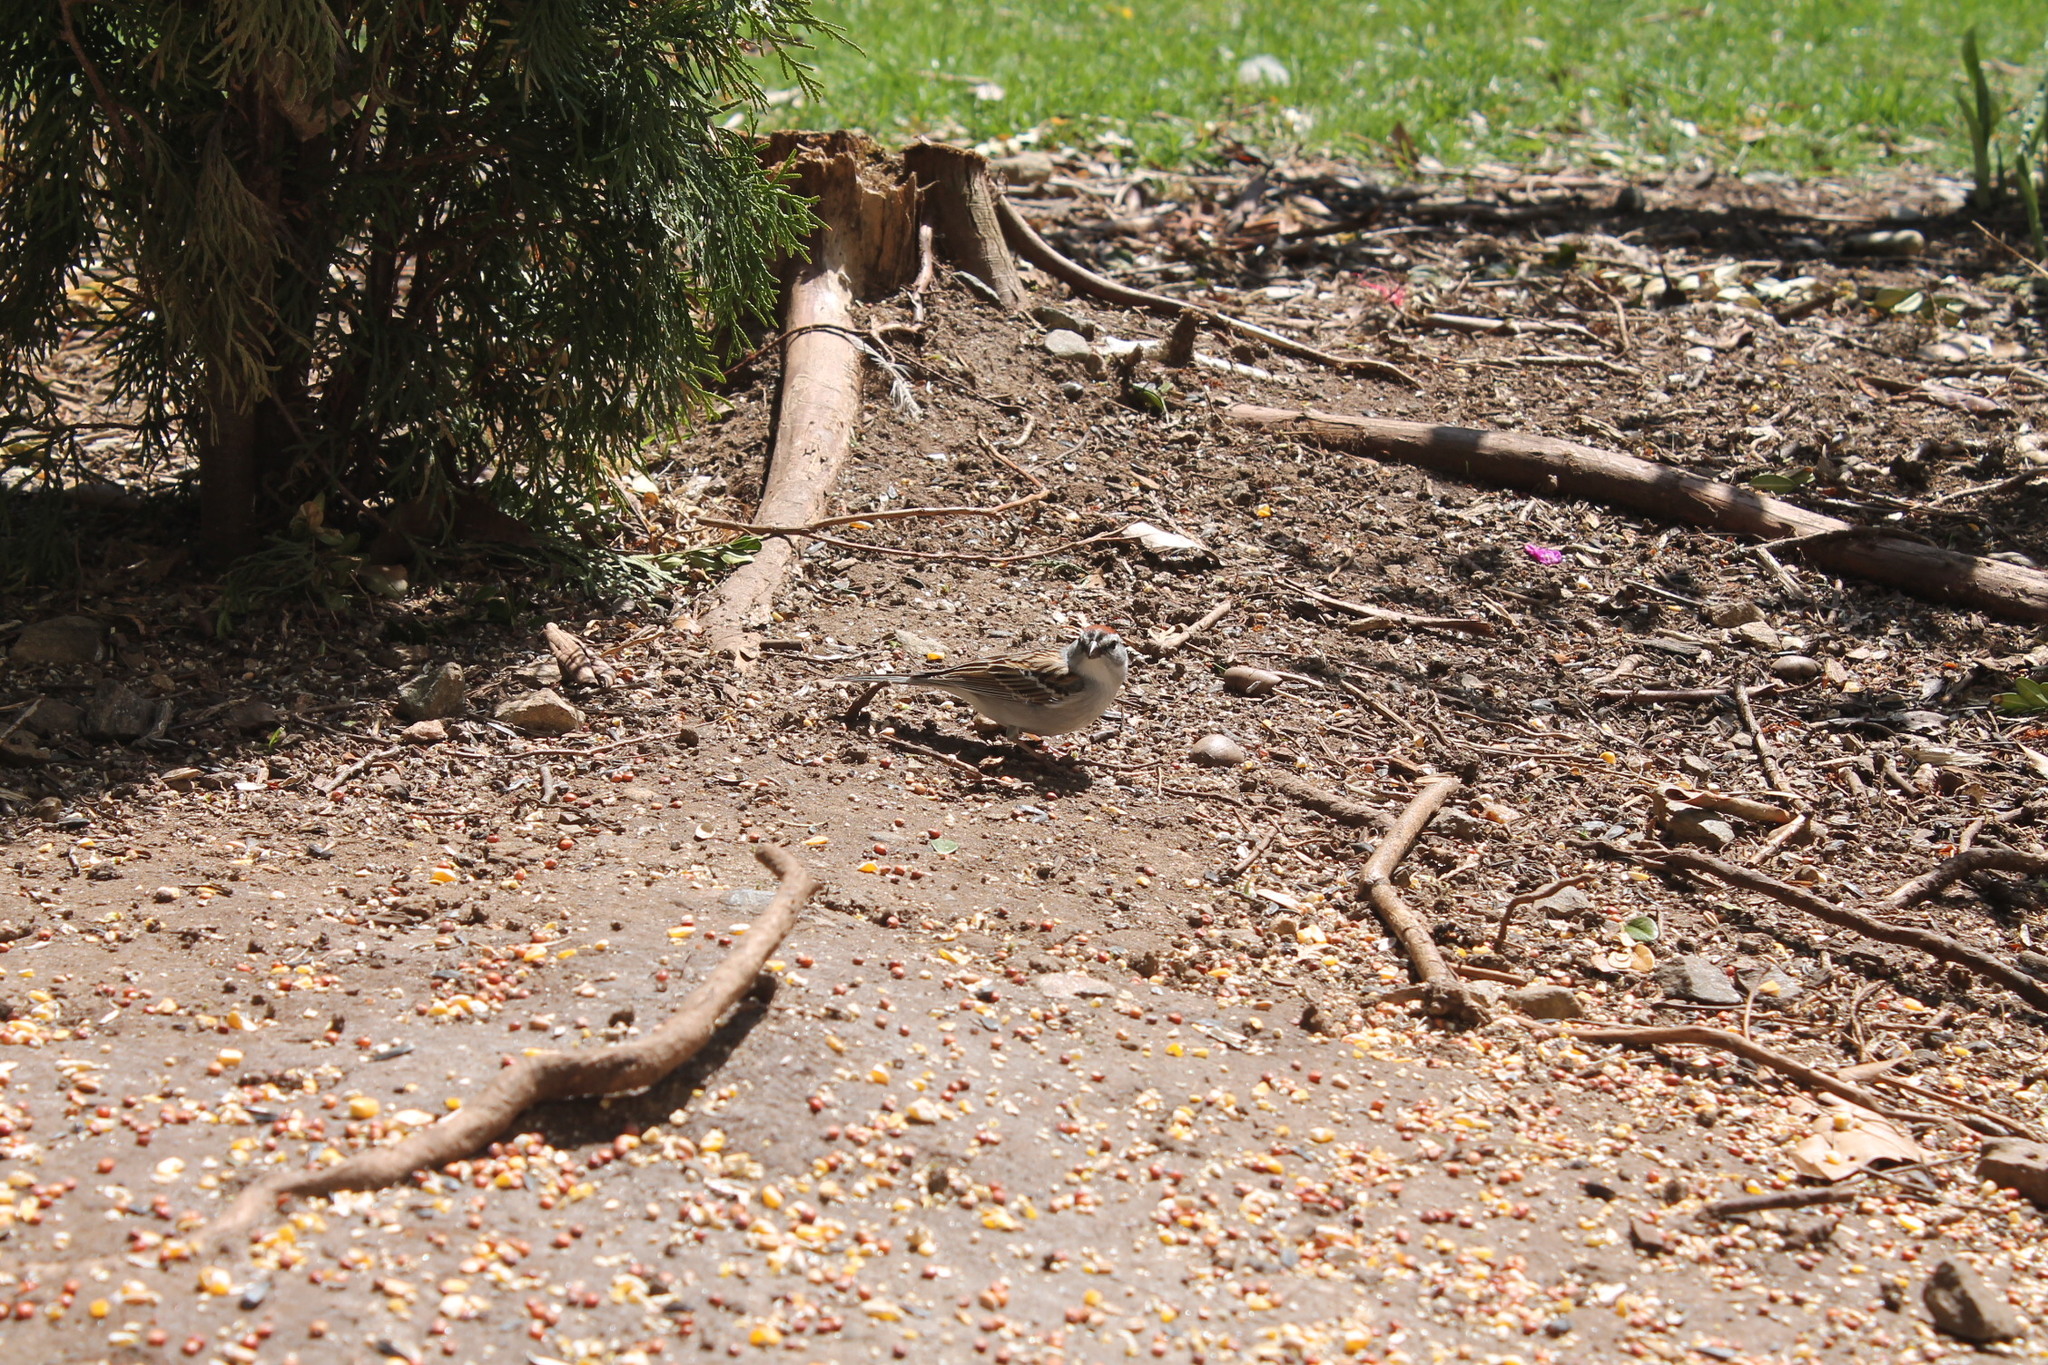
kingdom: Animalia
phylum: Chordata
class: Aves
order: Passeriformes
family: Passerellidae
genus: Spizella
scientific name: Spizella passerina
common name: Chipping sparrow
